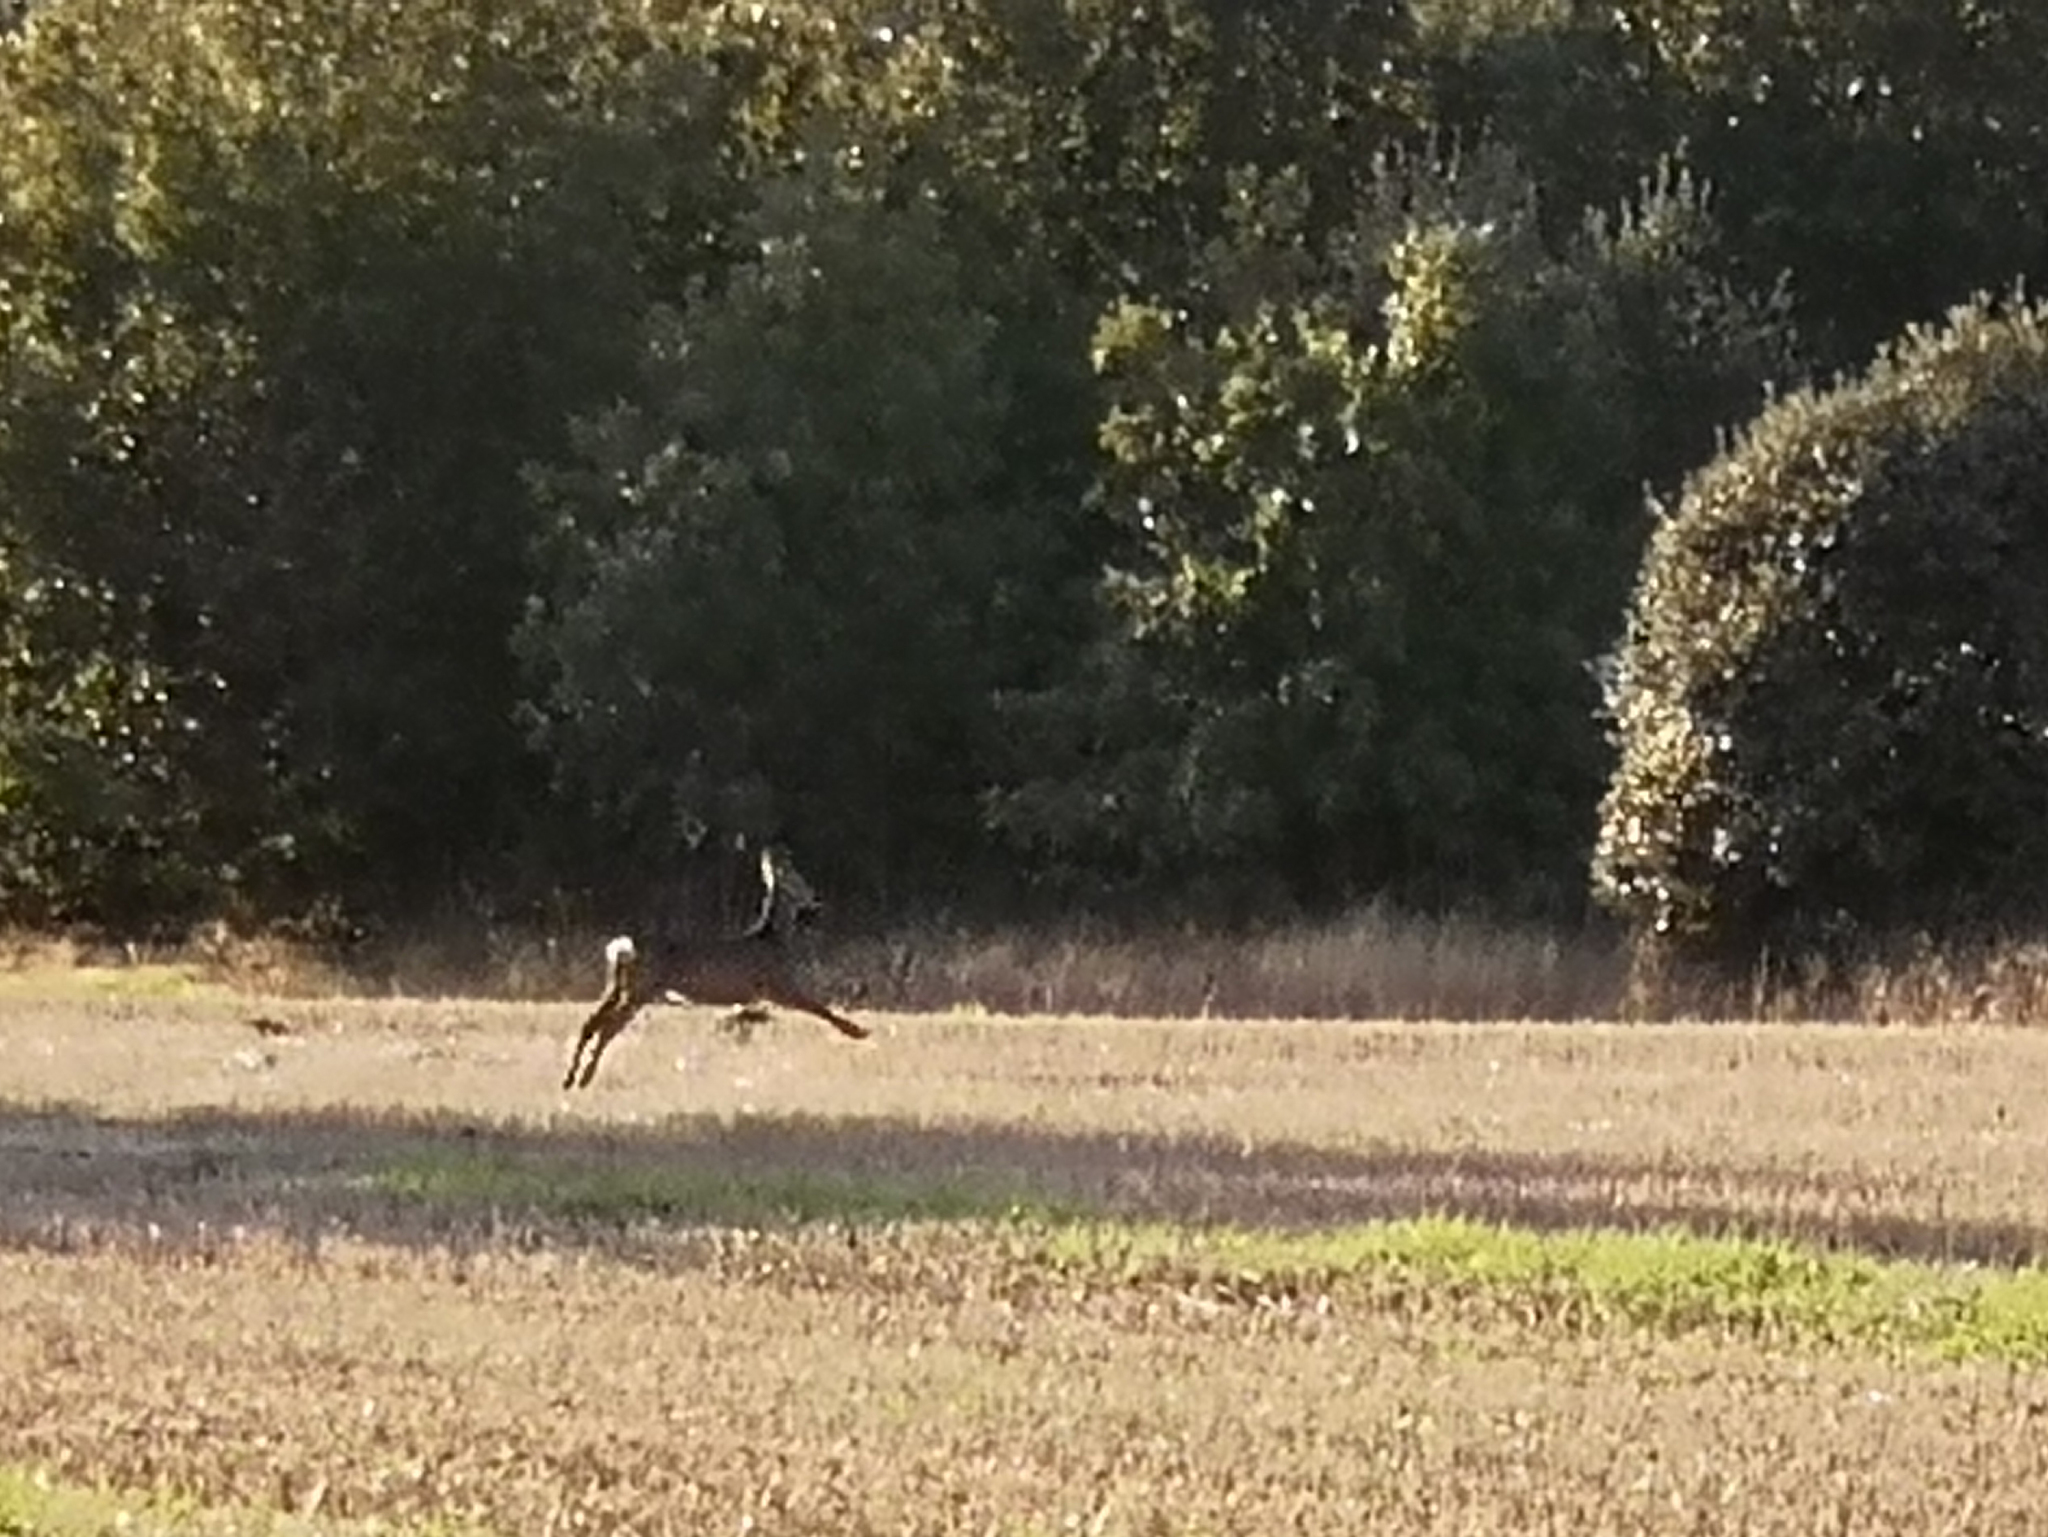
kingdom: Animalia
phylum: Chordata
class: Mammalia
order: Artiodactyla
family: Cervidae
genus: Capreolus
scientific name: Capreolus capreolus
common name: Western roe deer
